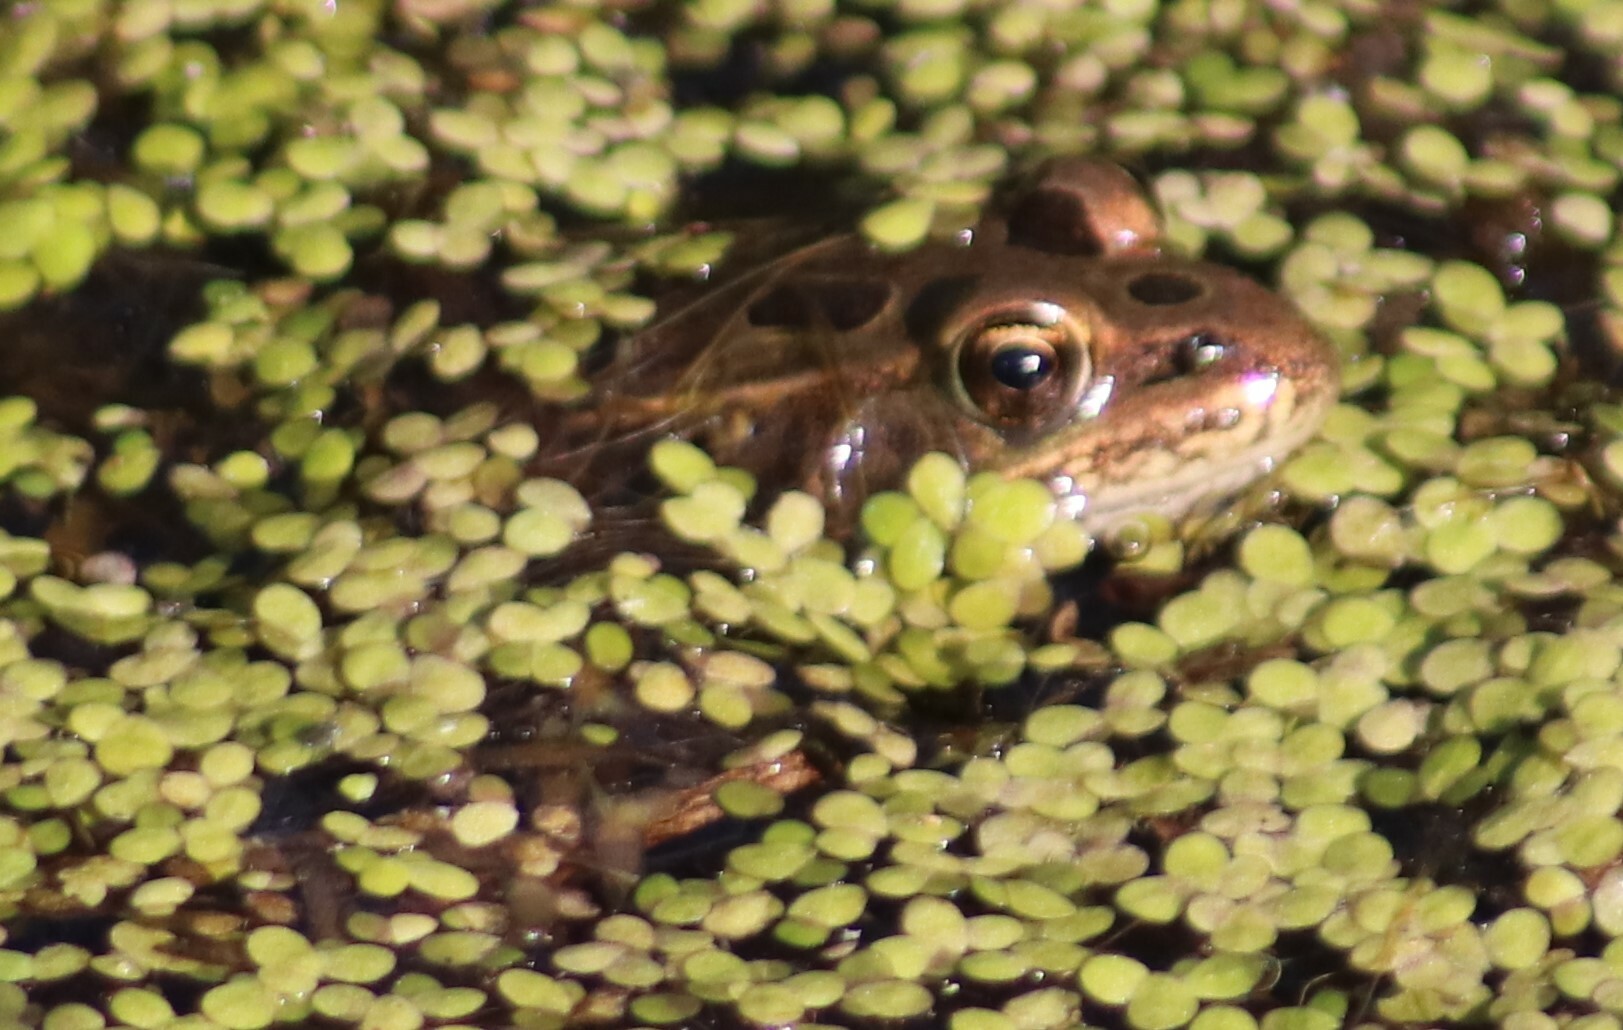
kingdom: Animalia
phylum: Chordata
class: Amphibia
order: Anura
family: Ranidae
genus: Lithobates
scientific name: Lithobates pipiens
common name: Northern leopard frog
